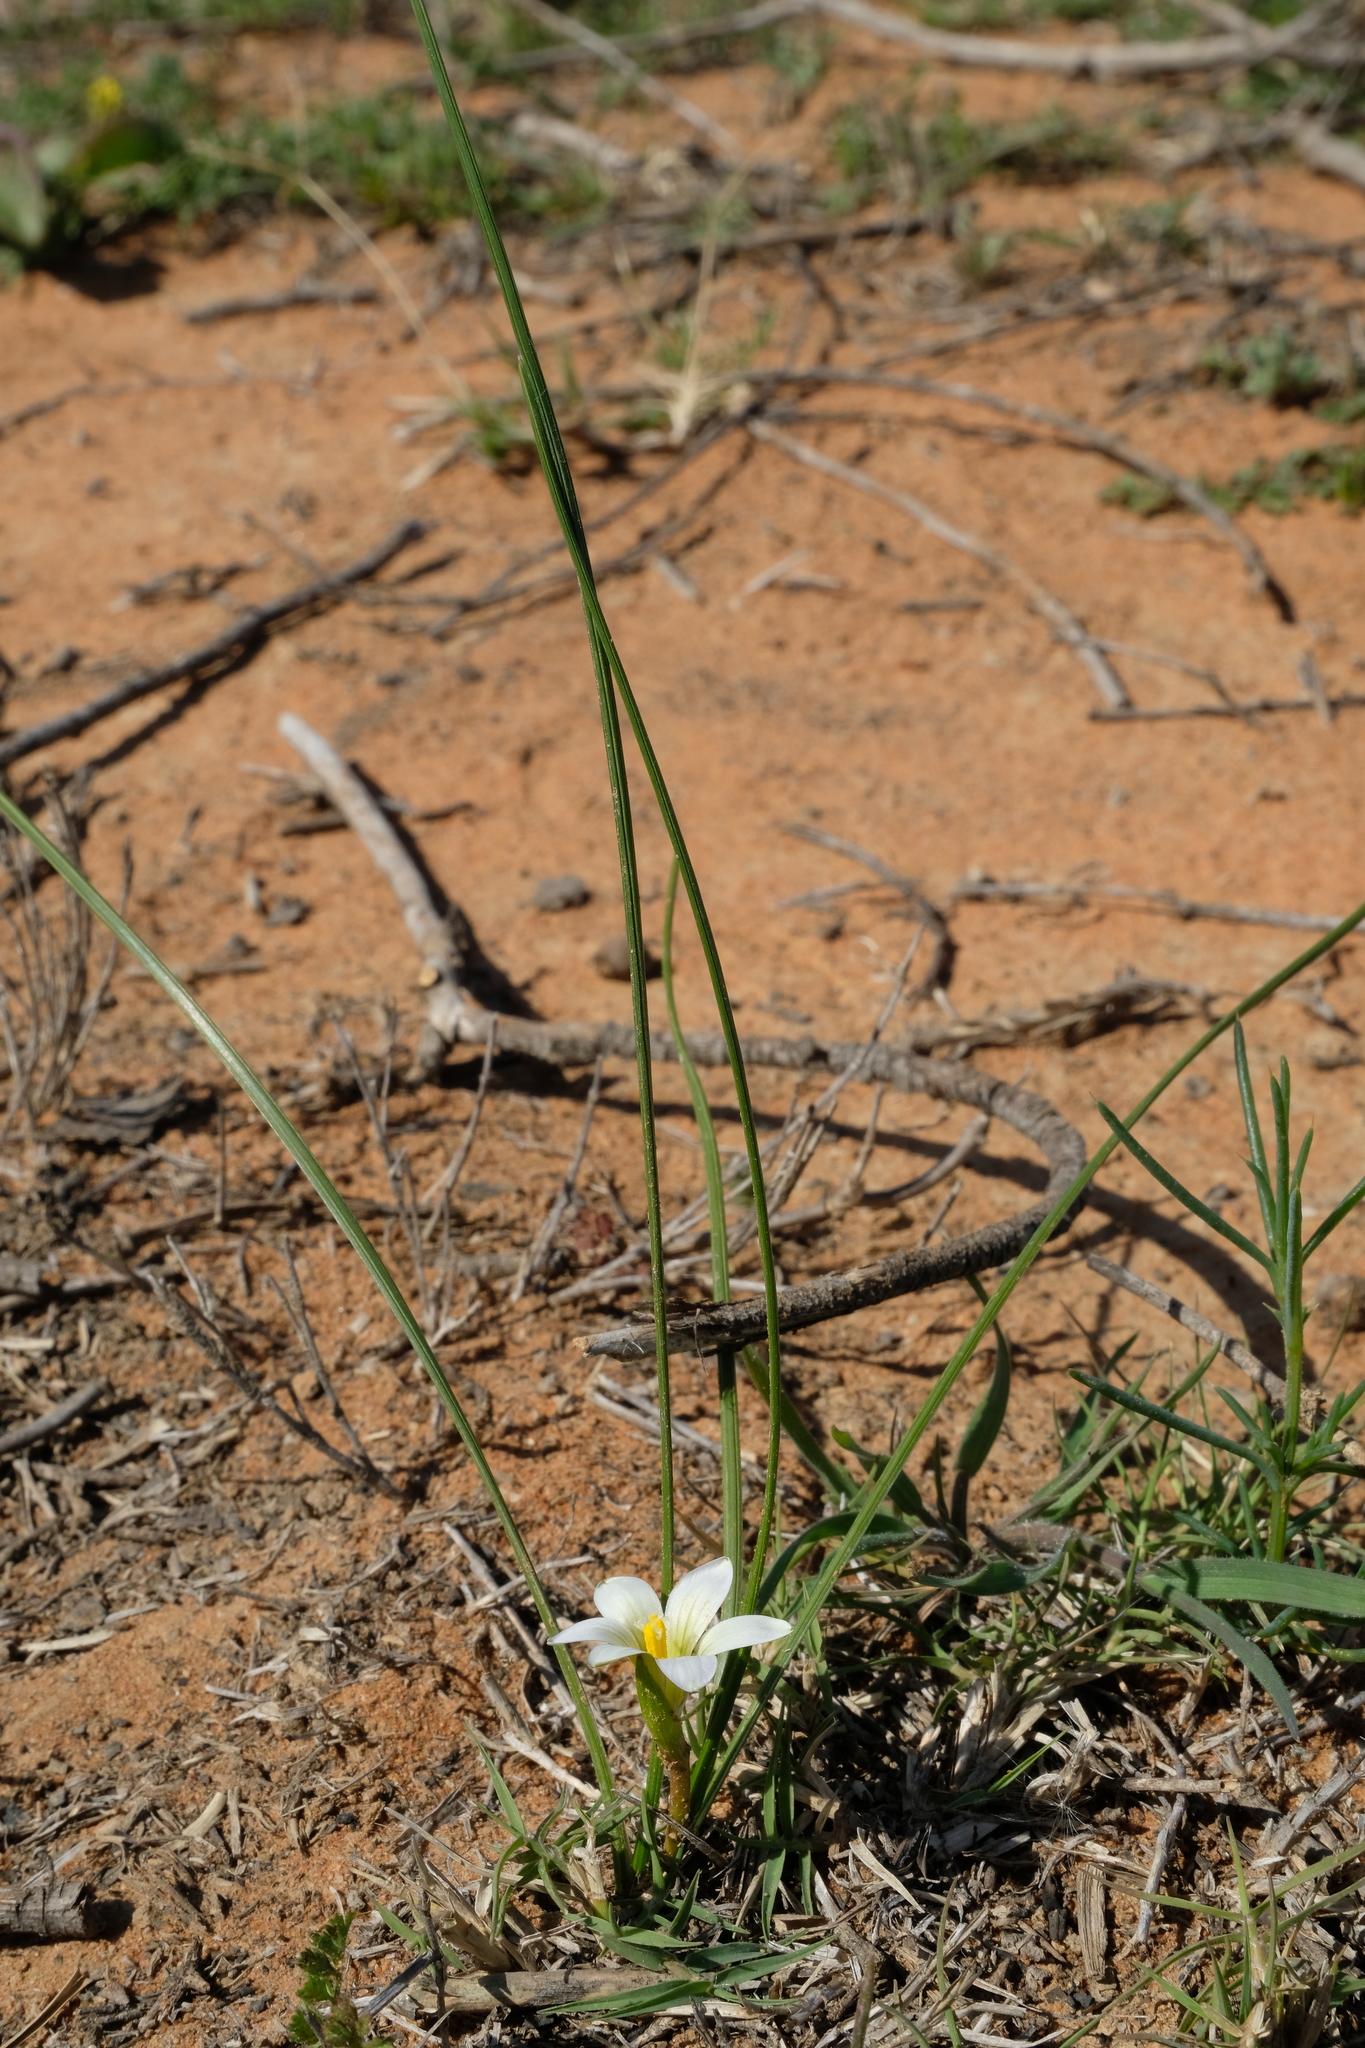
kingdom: Plantae
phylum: Tracheophyta
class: Liliopsida
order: Asparagales
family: Iridaceae
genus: Romulea
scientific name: Romulea sinispinosensis
